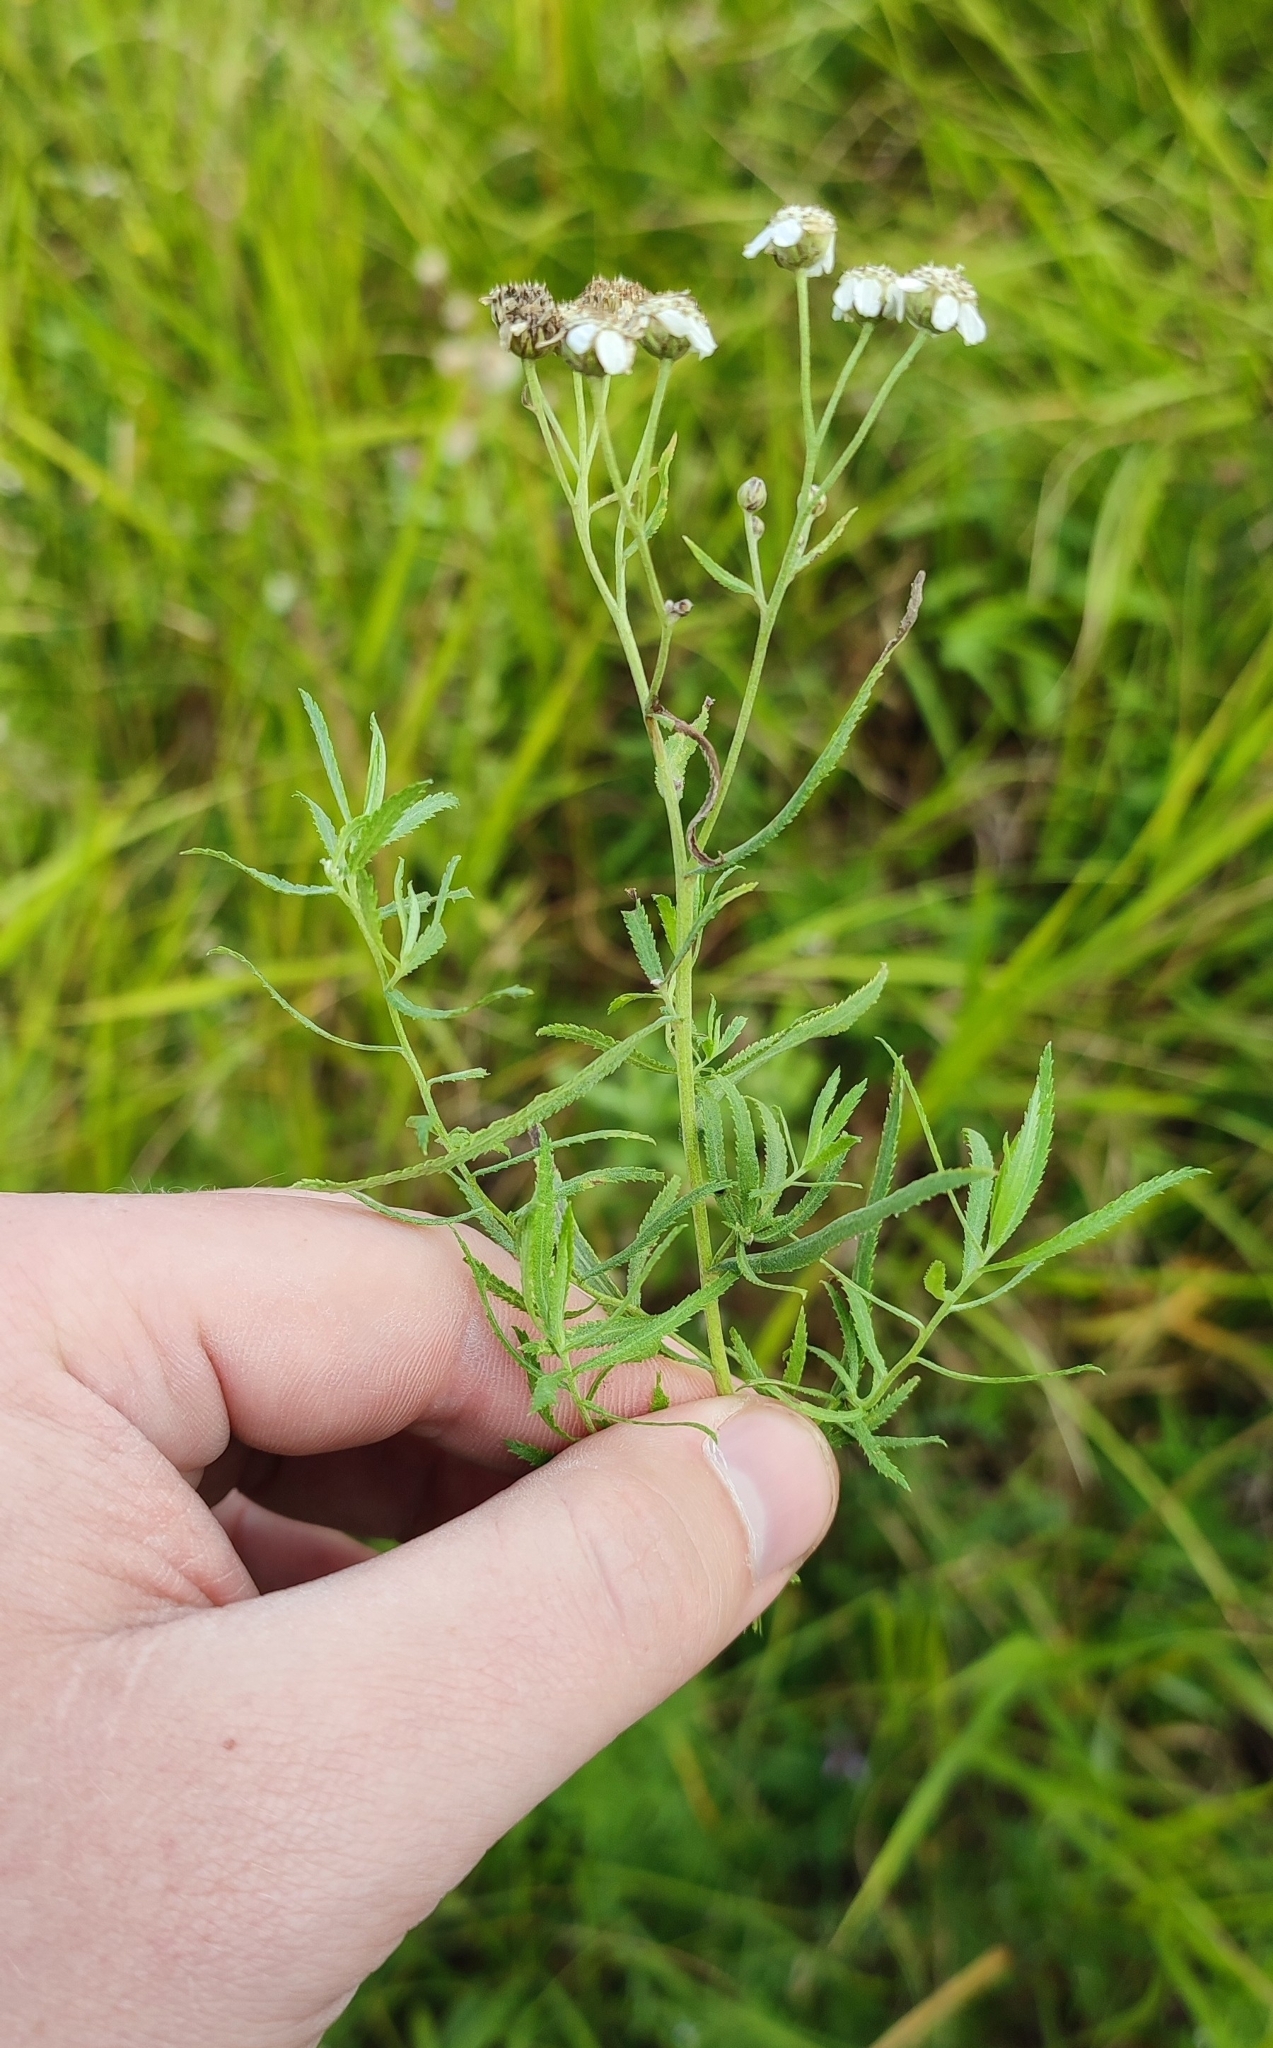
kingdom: Plantae
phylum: Tracheophyta
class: Magnoliopsida
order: Asterales
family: Asteraceae
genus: Achillea
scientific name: Achillea salicifolia
